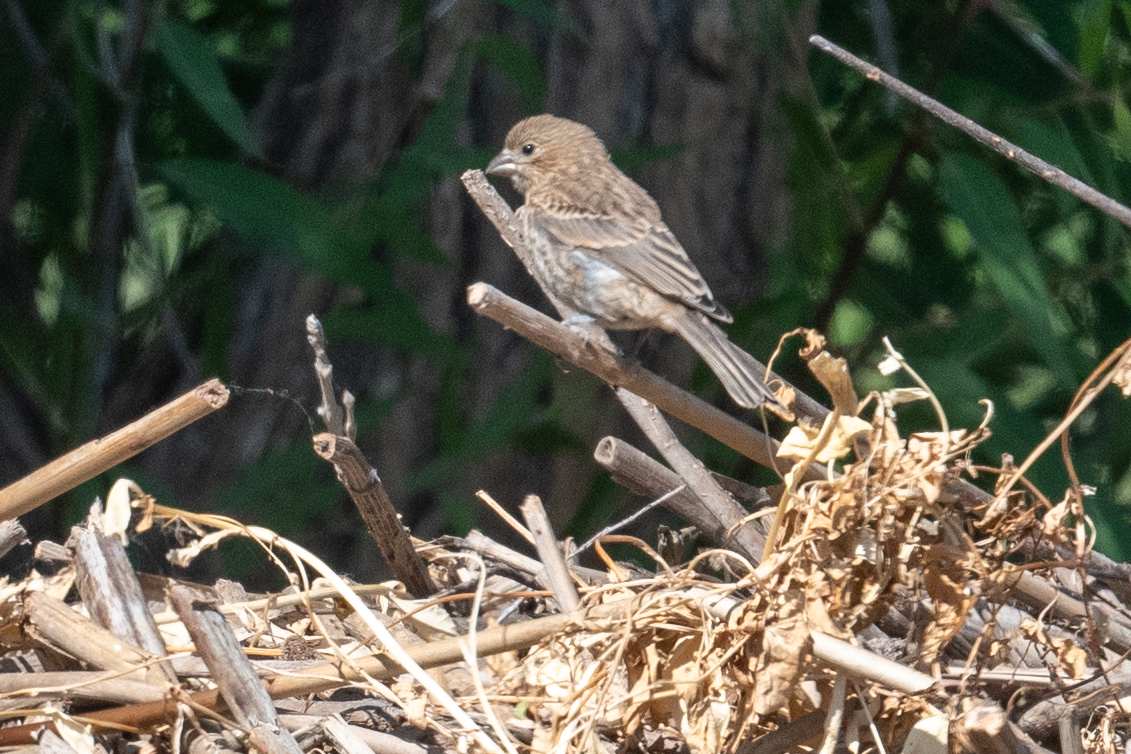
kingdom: Animalia
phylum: Chordata
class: Aves
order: Passeriformes
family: Fringillidae
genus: Haemorhous
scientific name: Haemorhous mexicanus
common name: House finch
